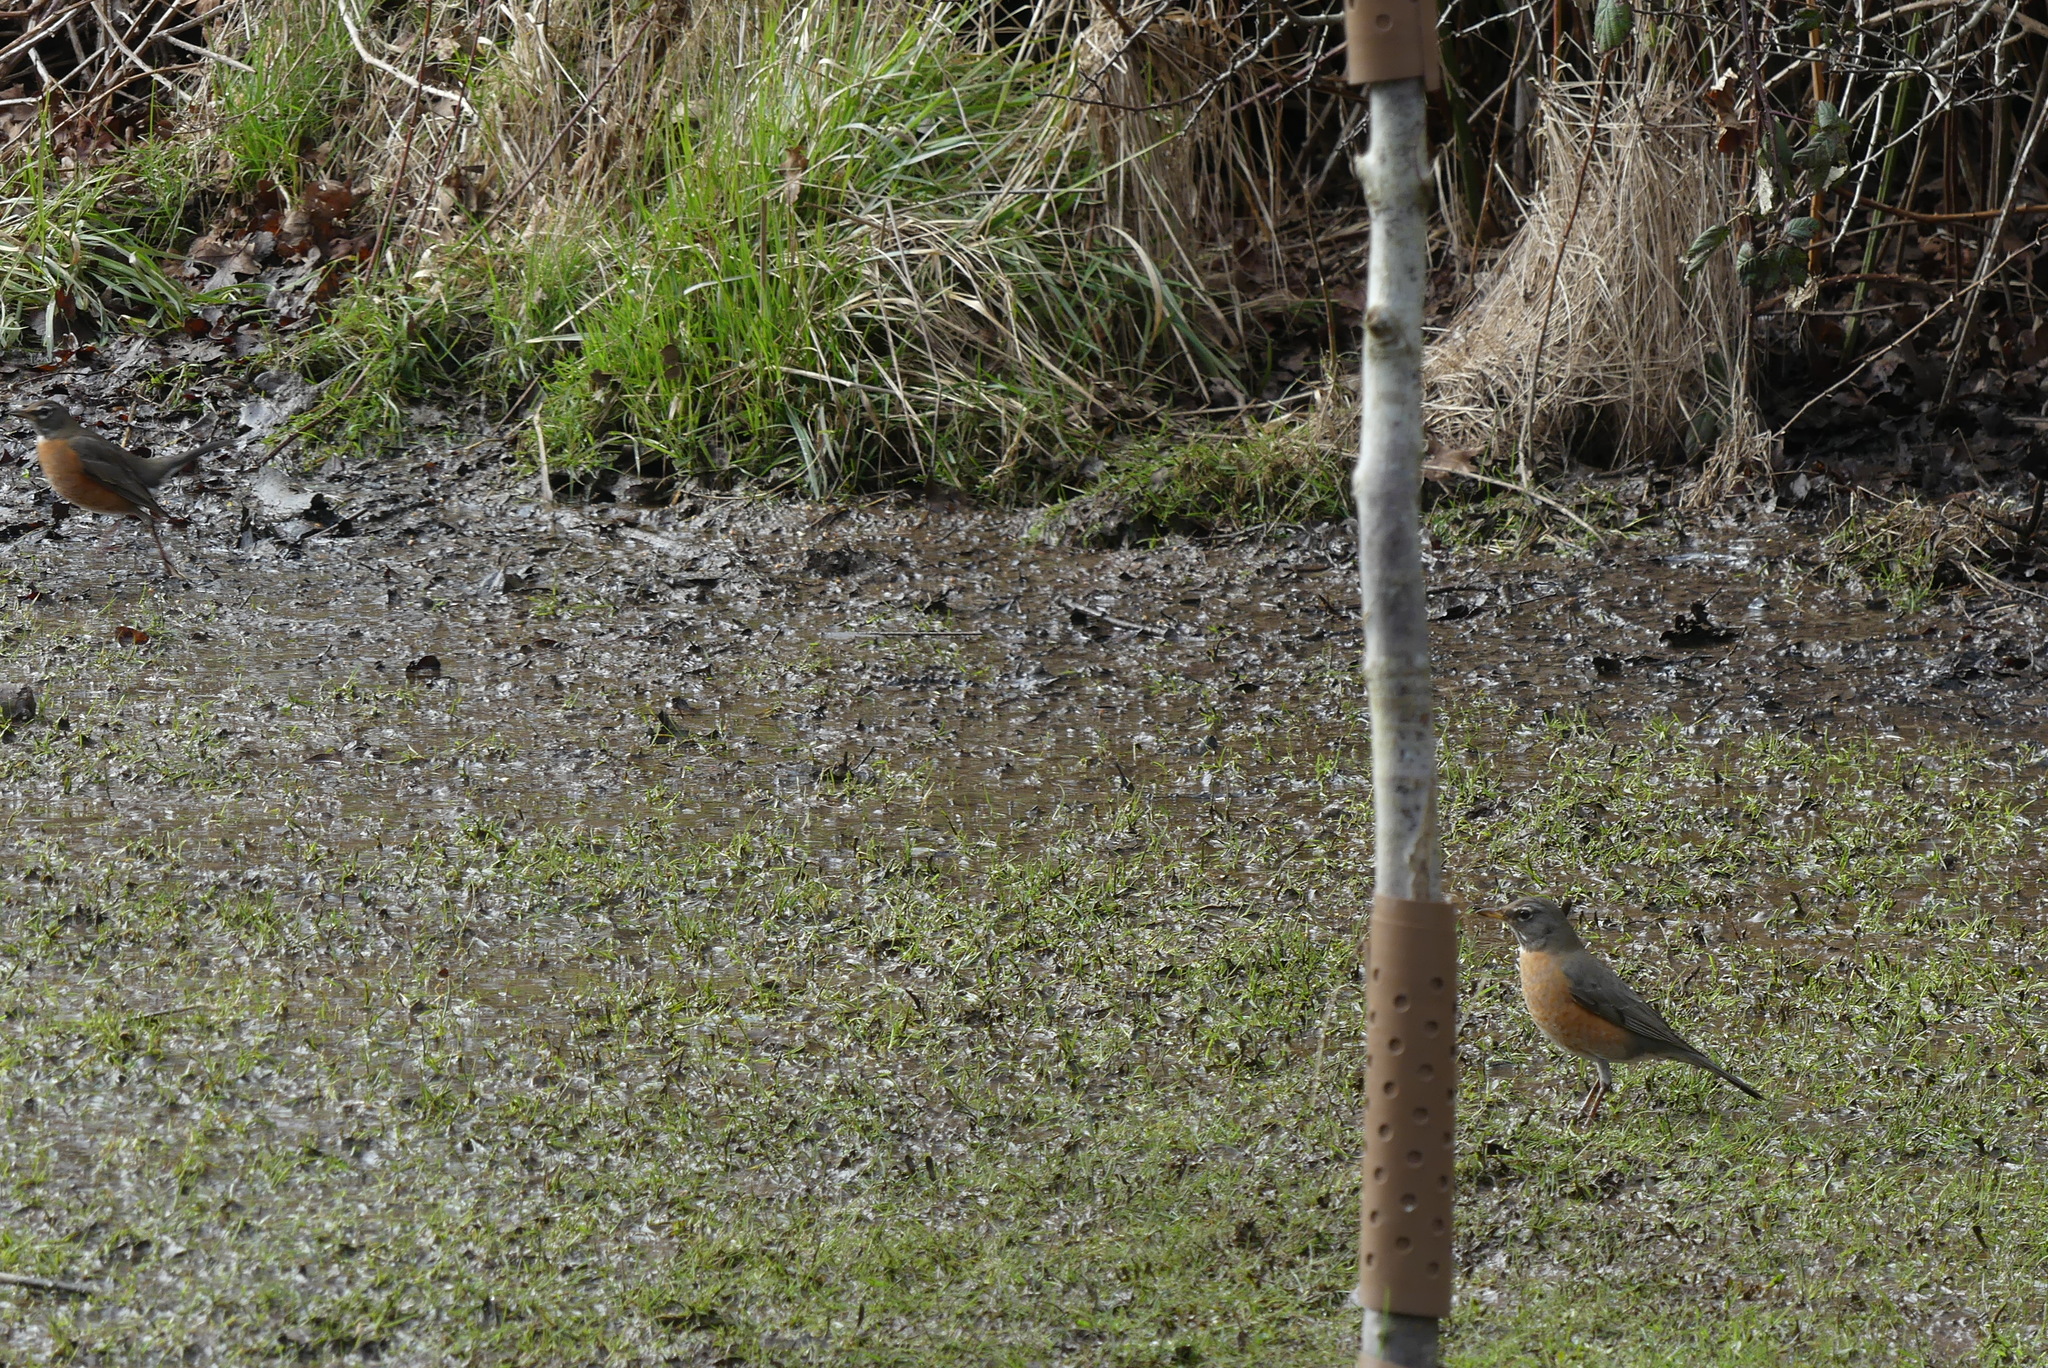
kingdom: Animalia
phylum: Chordata
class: Aves
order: Passeriformes
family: Turdidae
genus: Turdus
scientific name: Turdus migratorius
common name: American robin
